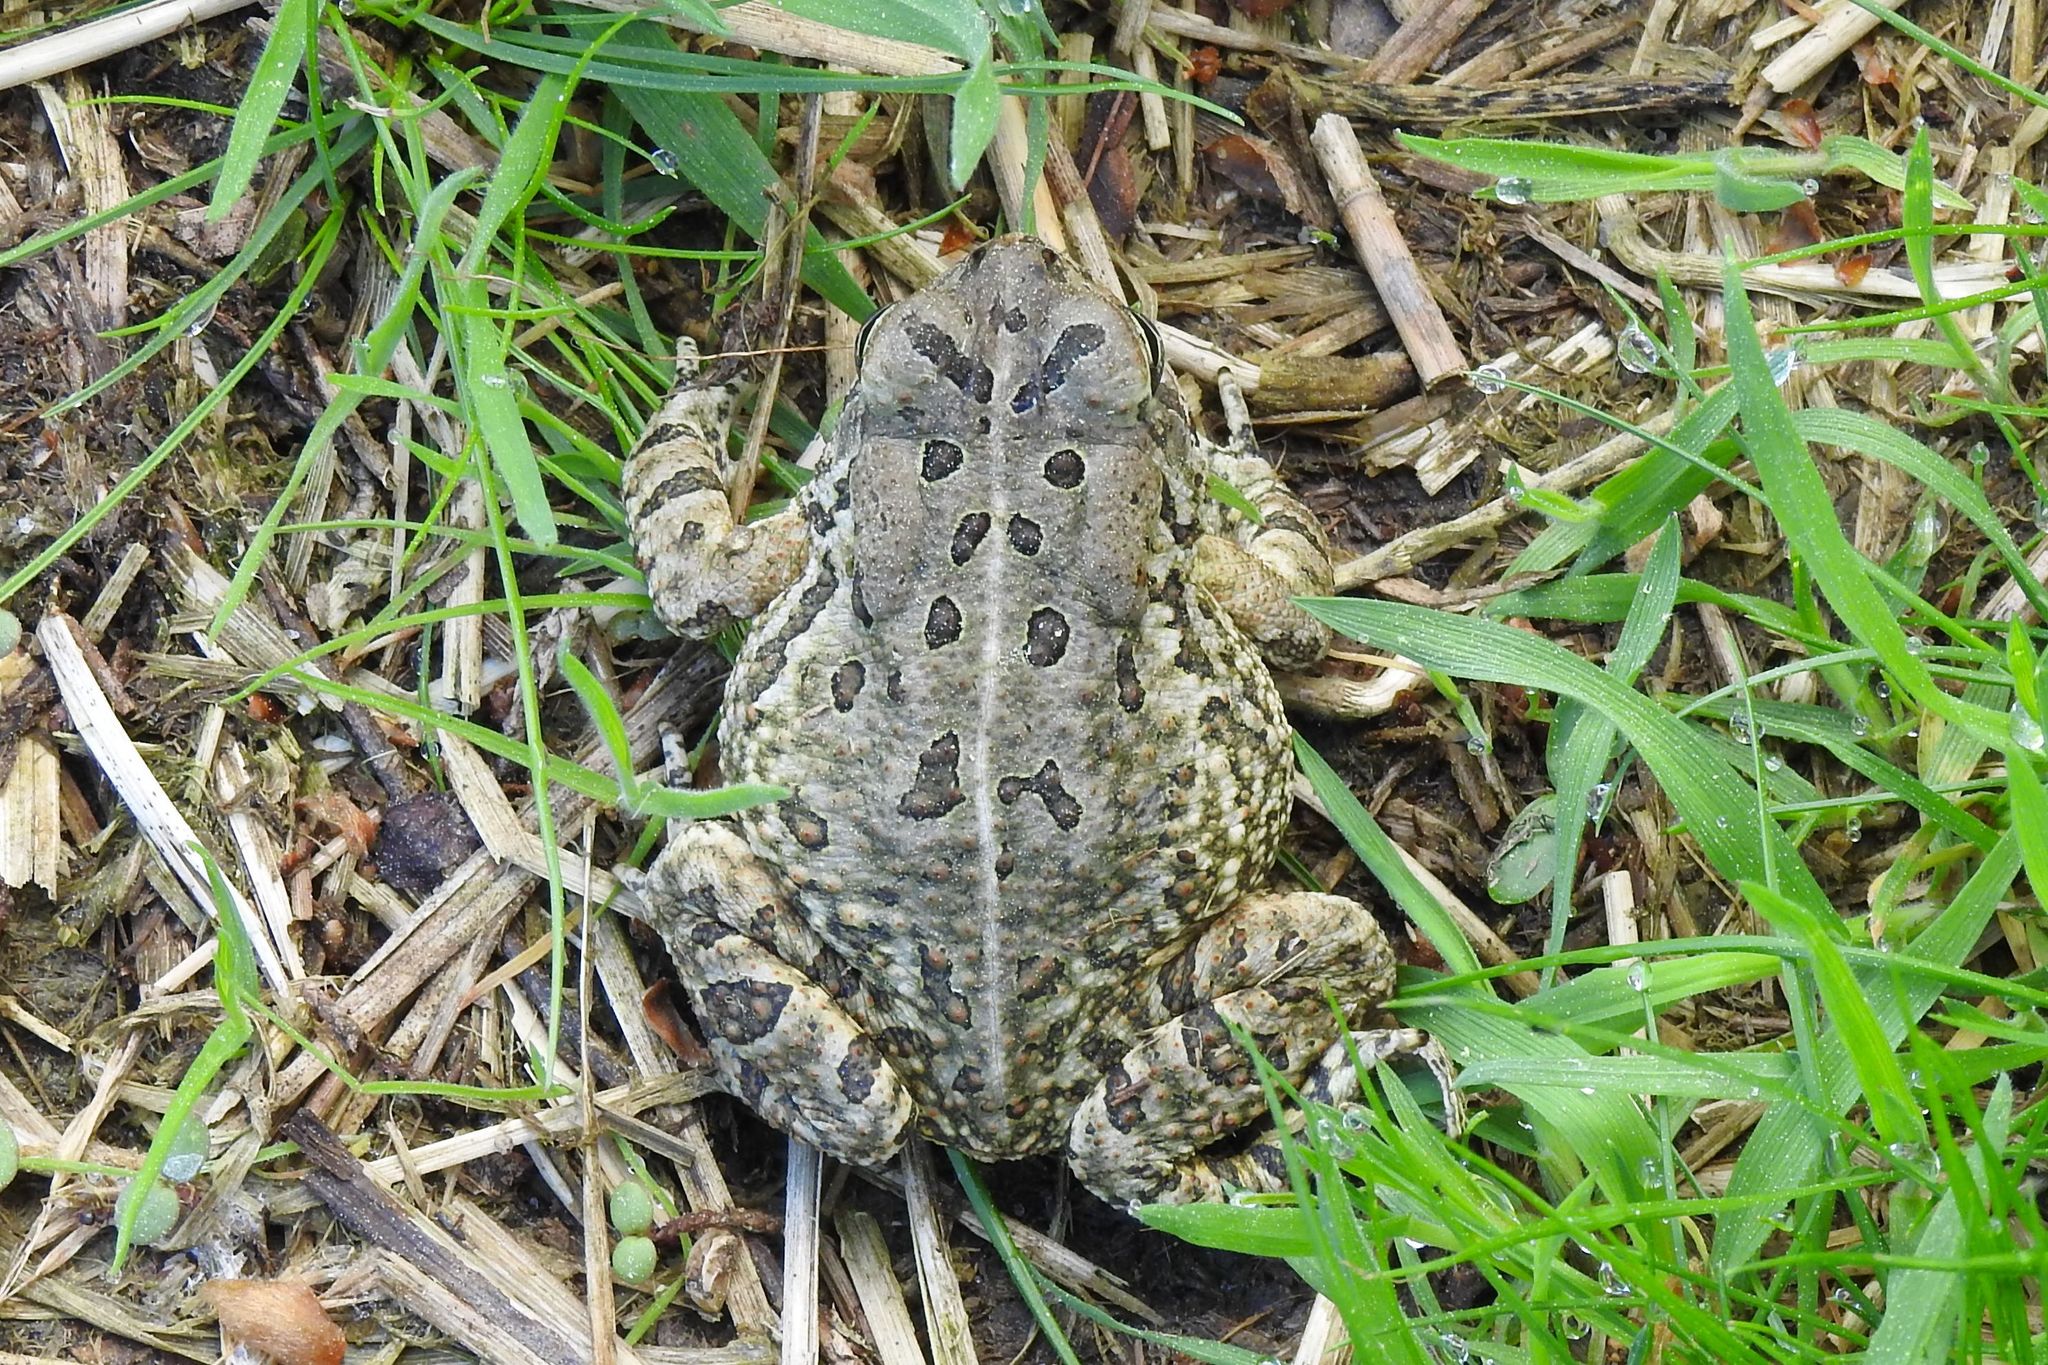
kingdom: Animalia
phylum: Chordata
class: Amphibia
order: Anura
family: Bufonidae
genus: Anaxyrus
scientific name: Anaxyrus fowleri
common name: Fowler's toad
